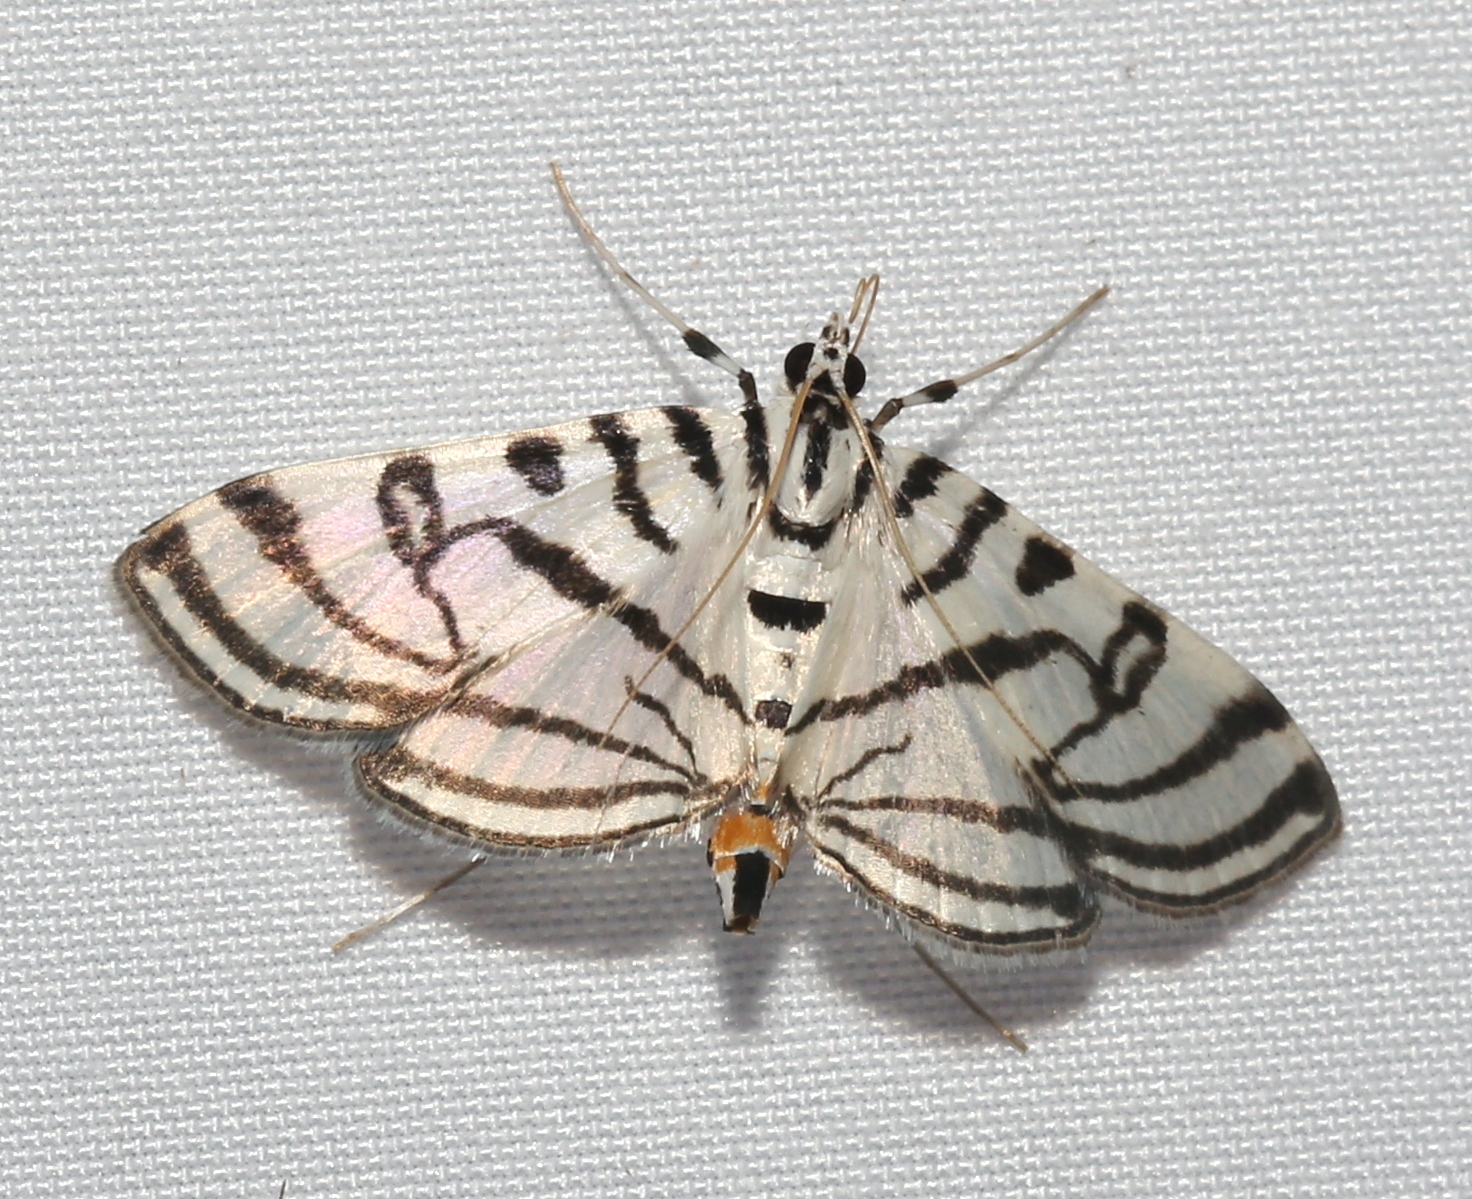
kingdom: Animalia
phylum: Arthropoda
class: Insecta
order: Lepidoptera
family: Crambidae
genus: Conchylodes
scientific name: Conchylodes ovulalis
